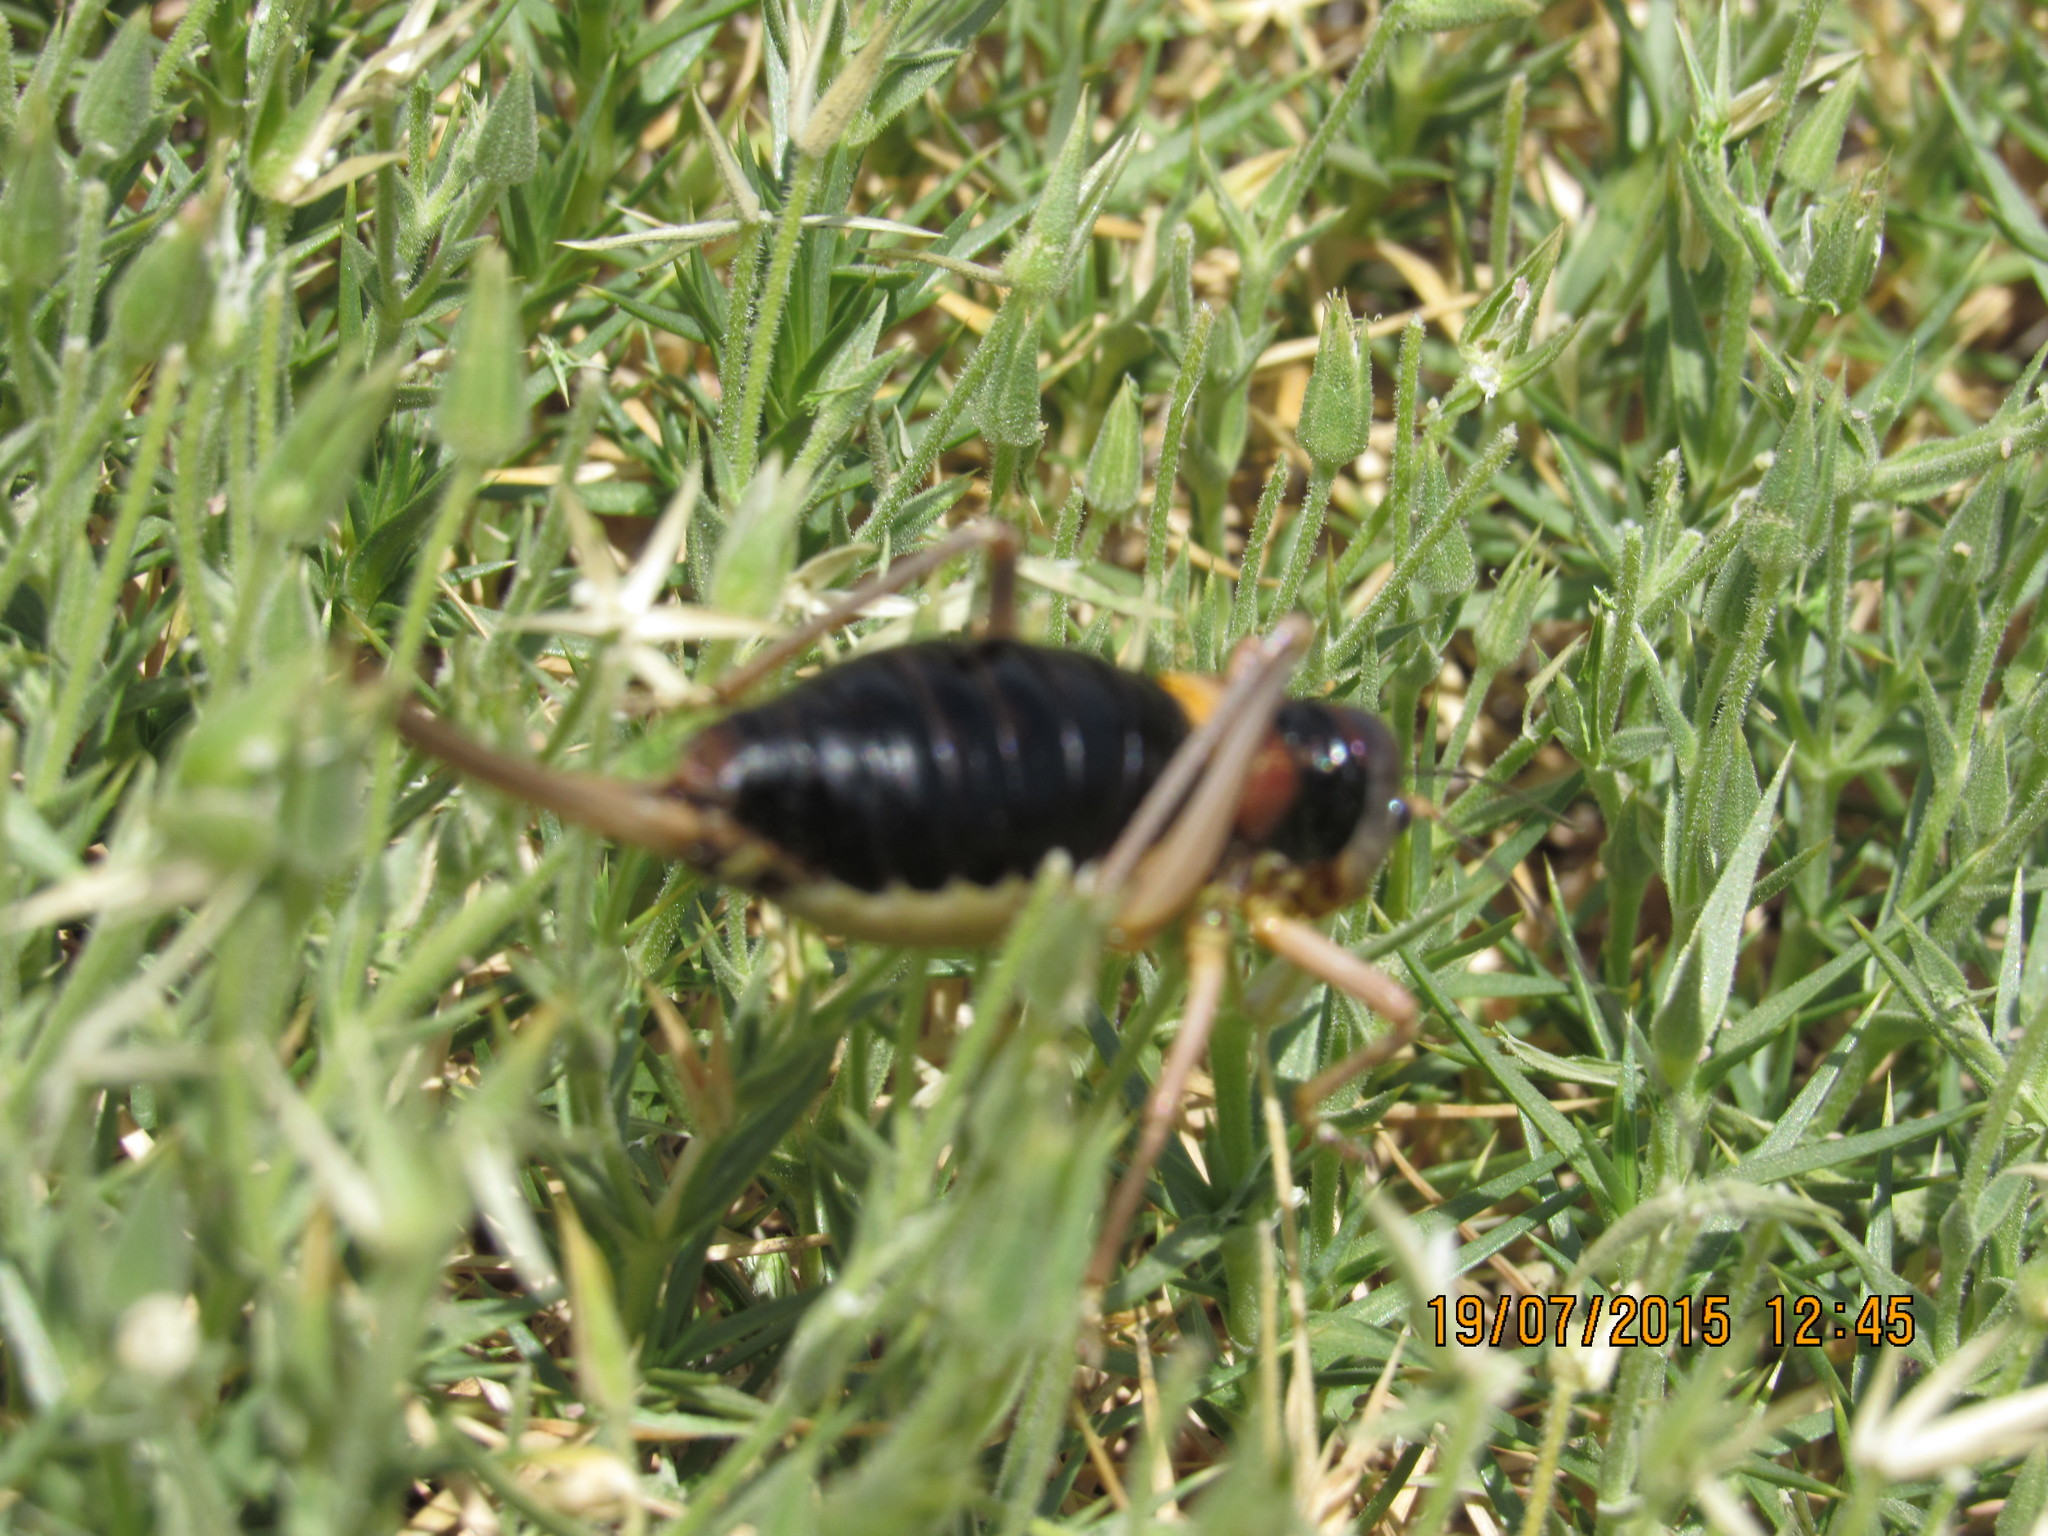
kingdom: Animalia
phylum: Arthropoda
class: Insecta
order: Orthoptera
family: Tettigoniidae
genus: Baetica
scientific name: Baetica ustulata
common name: Sierra nevadan saddle bush-cricket
